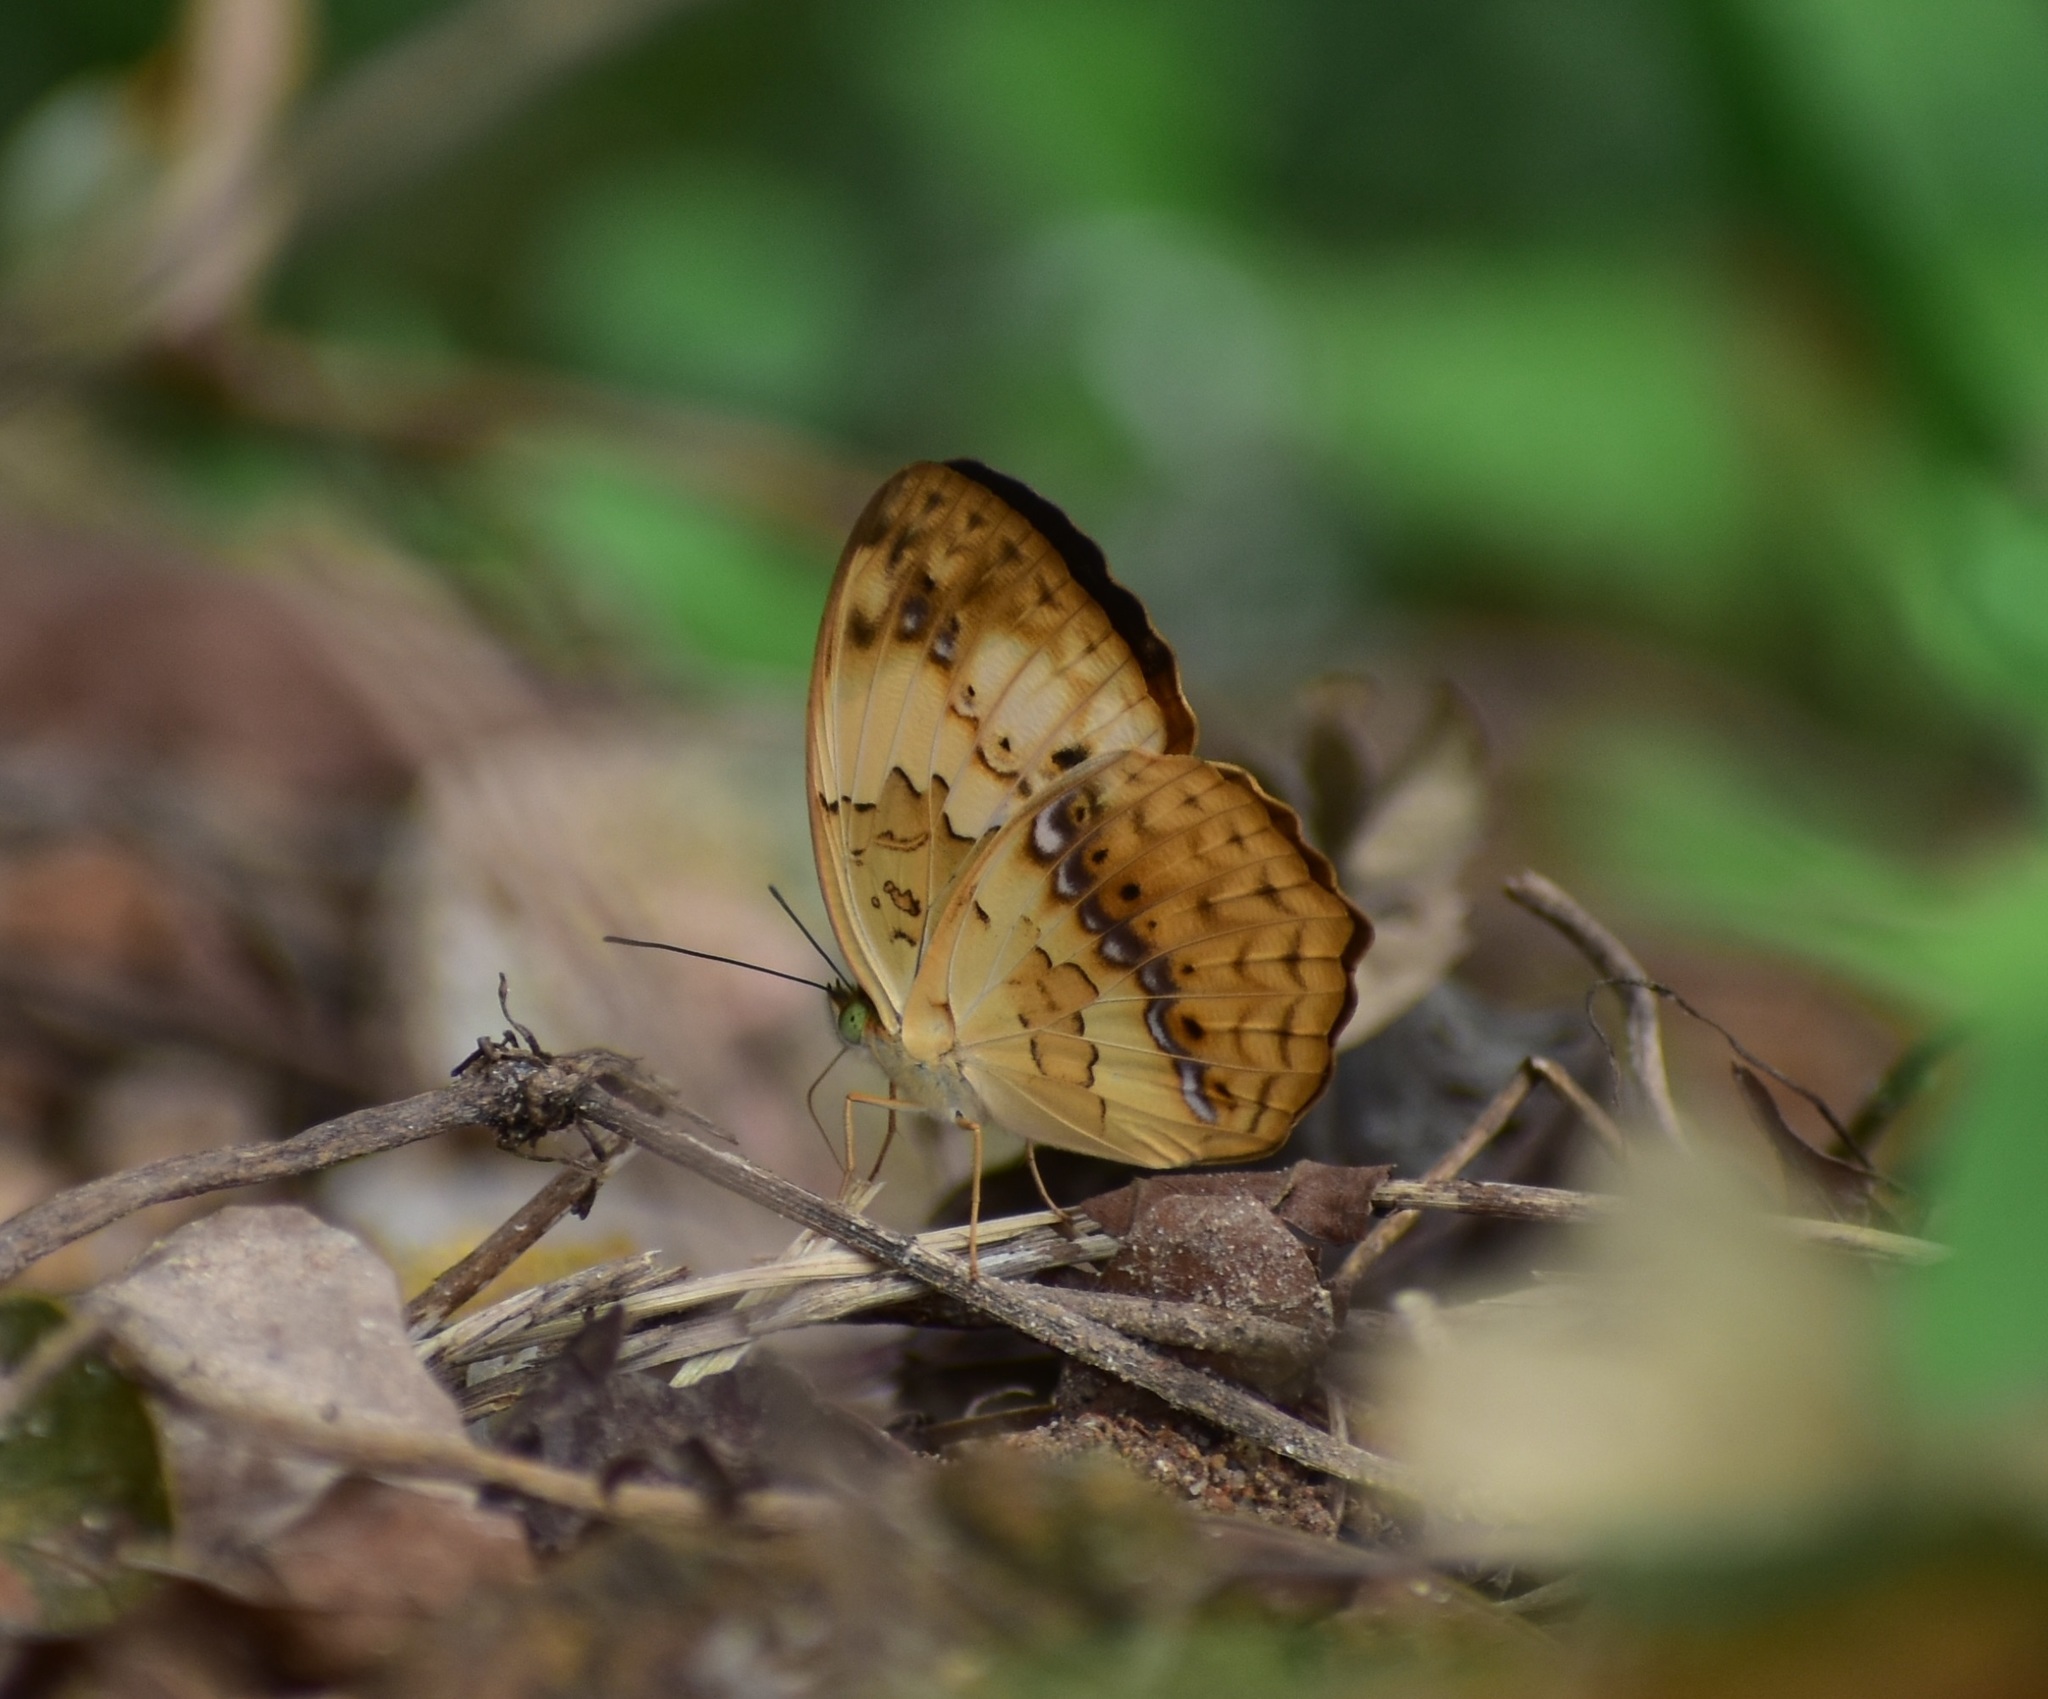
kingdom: Animalia
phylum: Arthropoda
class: Insecta
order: Lepidoptera
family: Nymphalidae
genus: Cupha
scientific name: Cupha erymanthis
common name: Rustic
